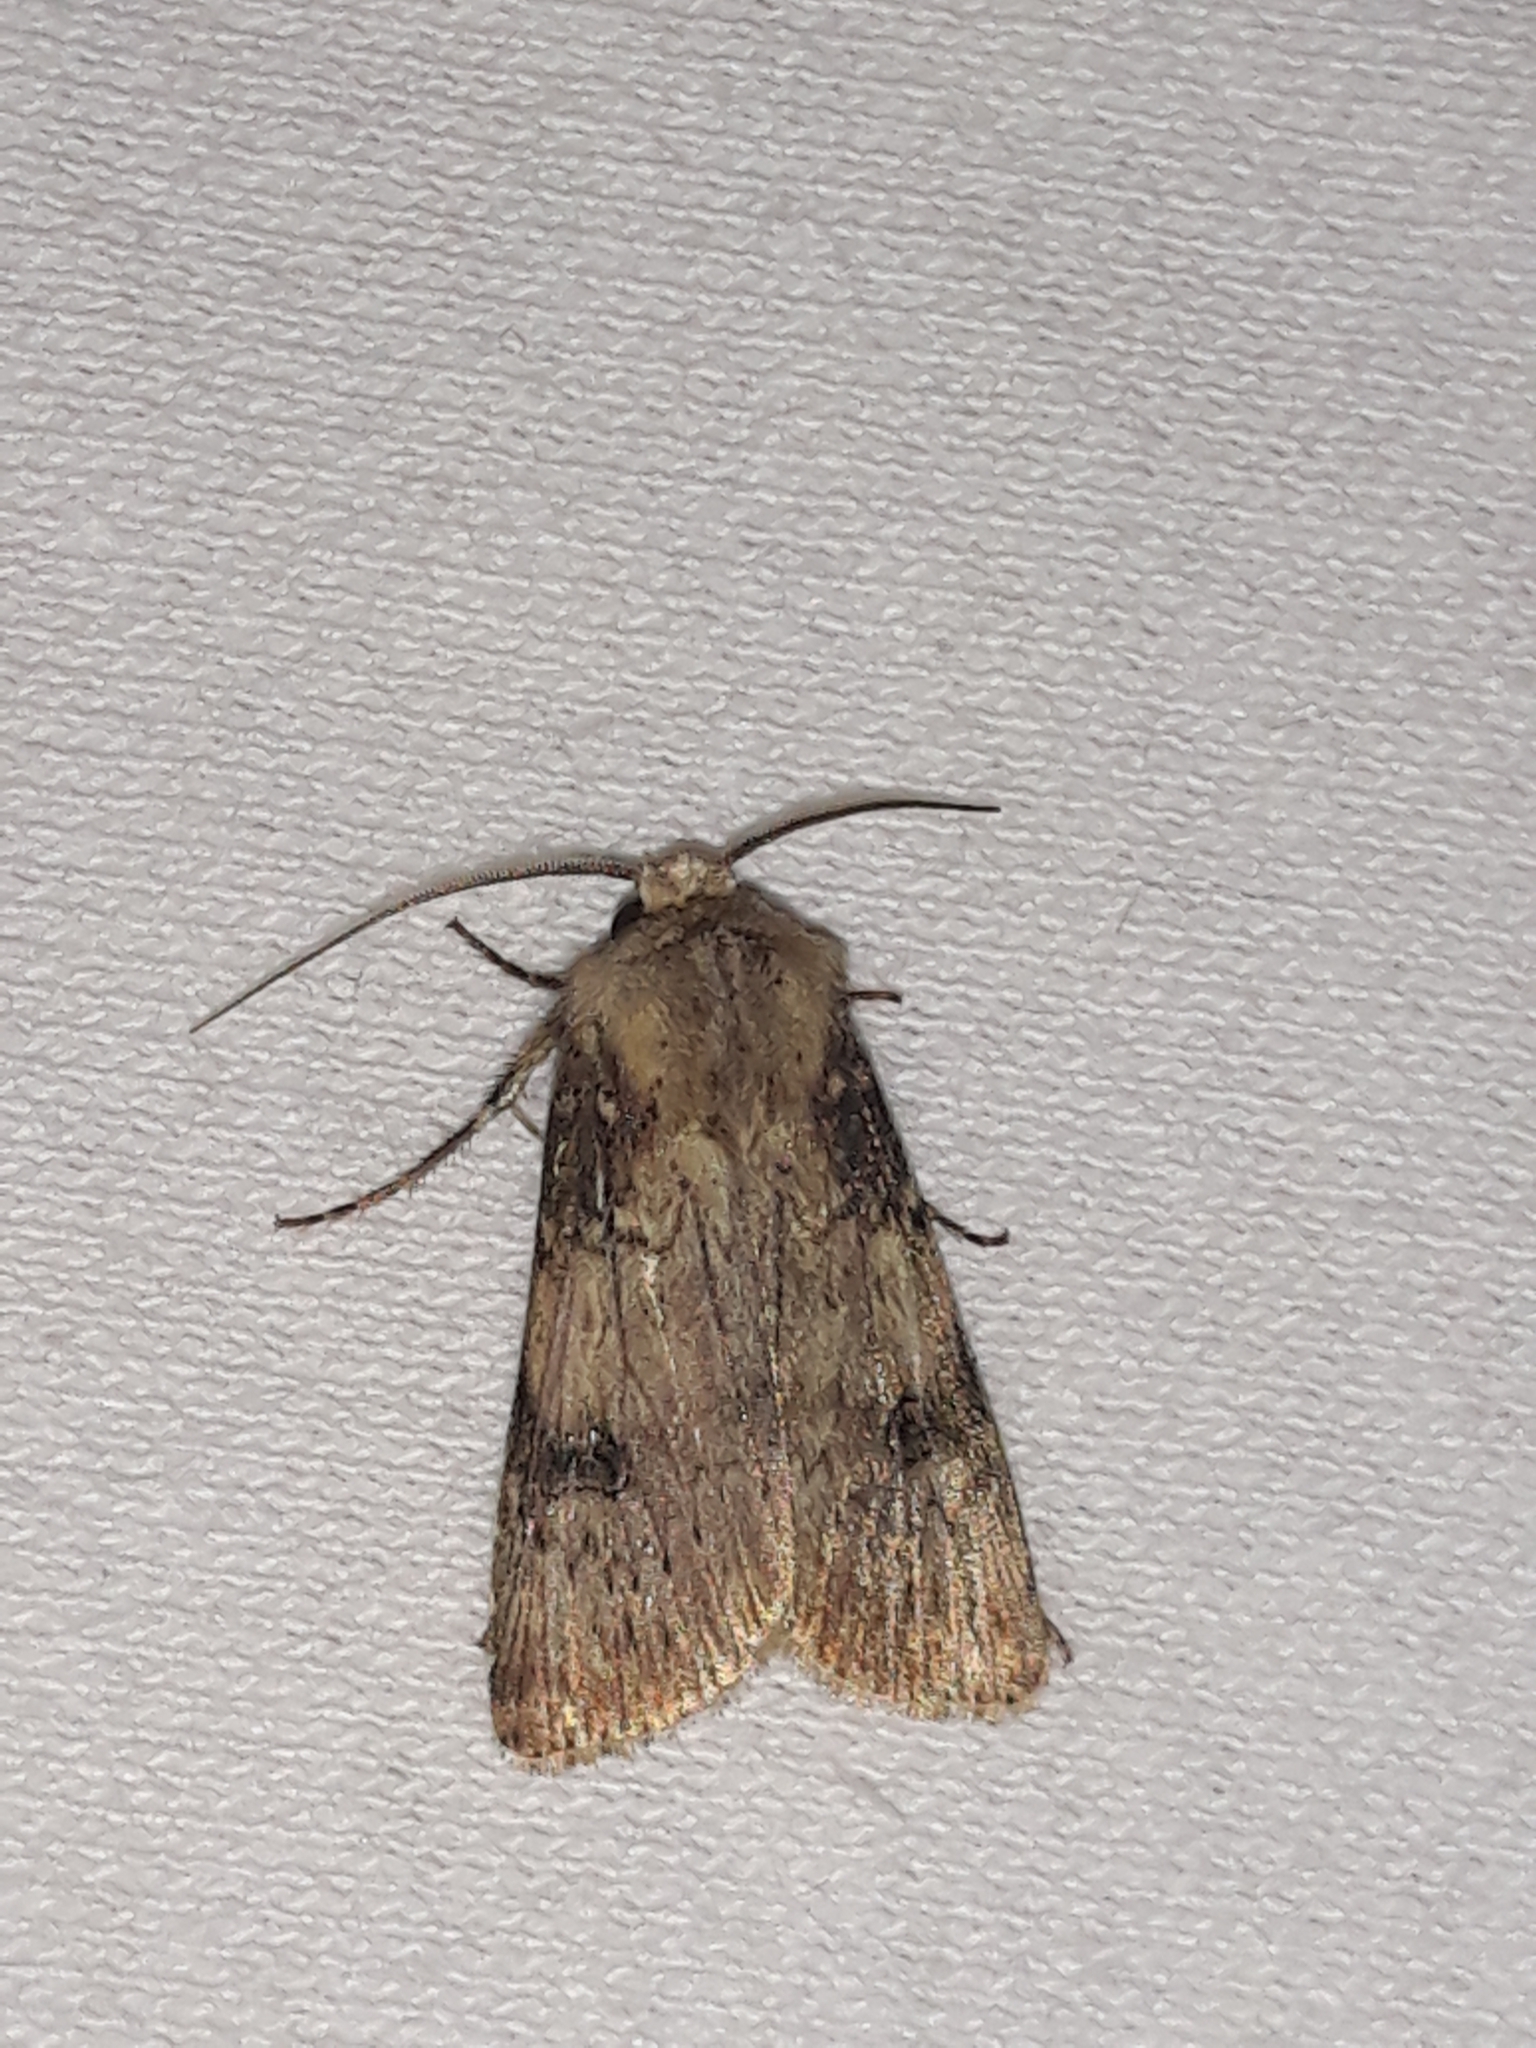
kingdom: Animalia
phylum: Arthropoda
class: Insecta
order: Lepidoptera
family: Noctuidae
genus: Agrotis
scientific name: Agrotis puta
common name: Shuttle-shaped dart
